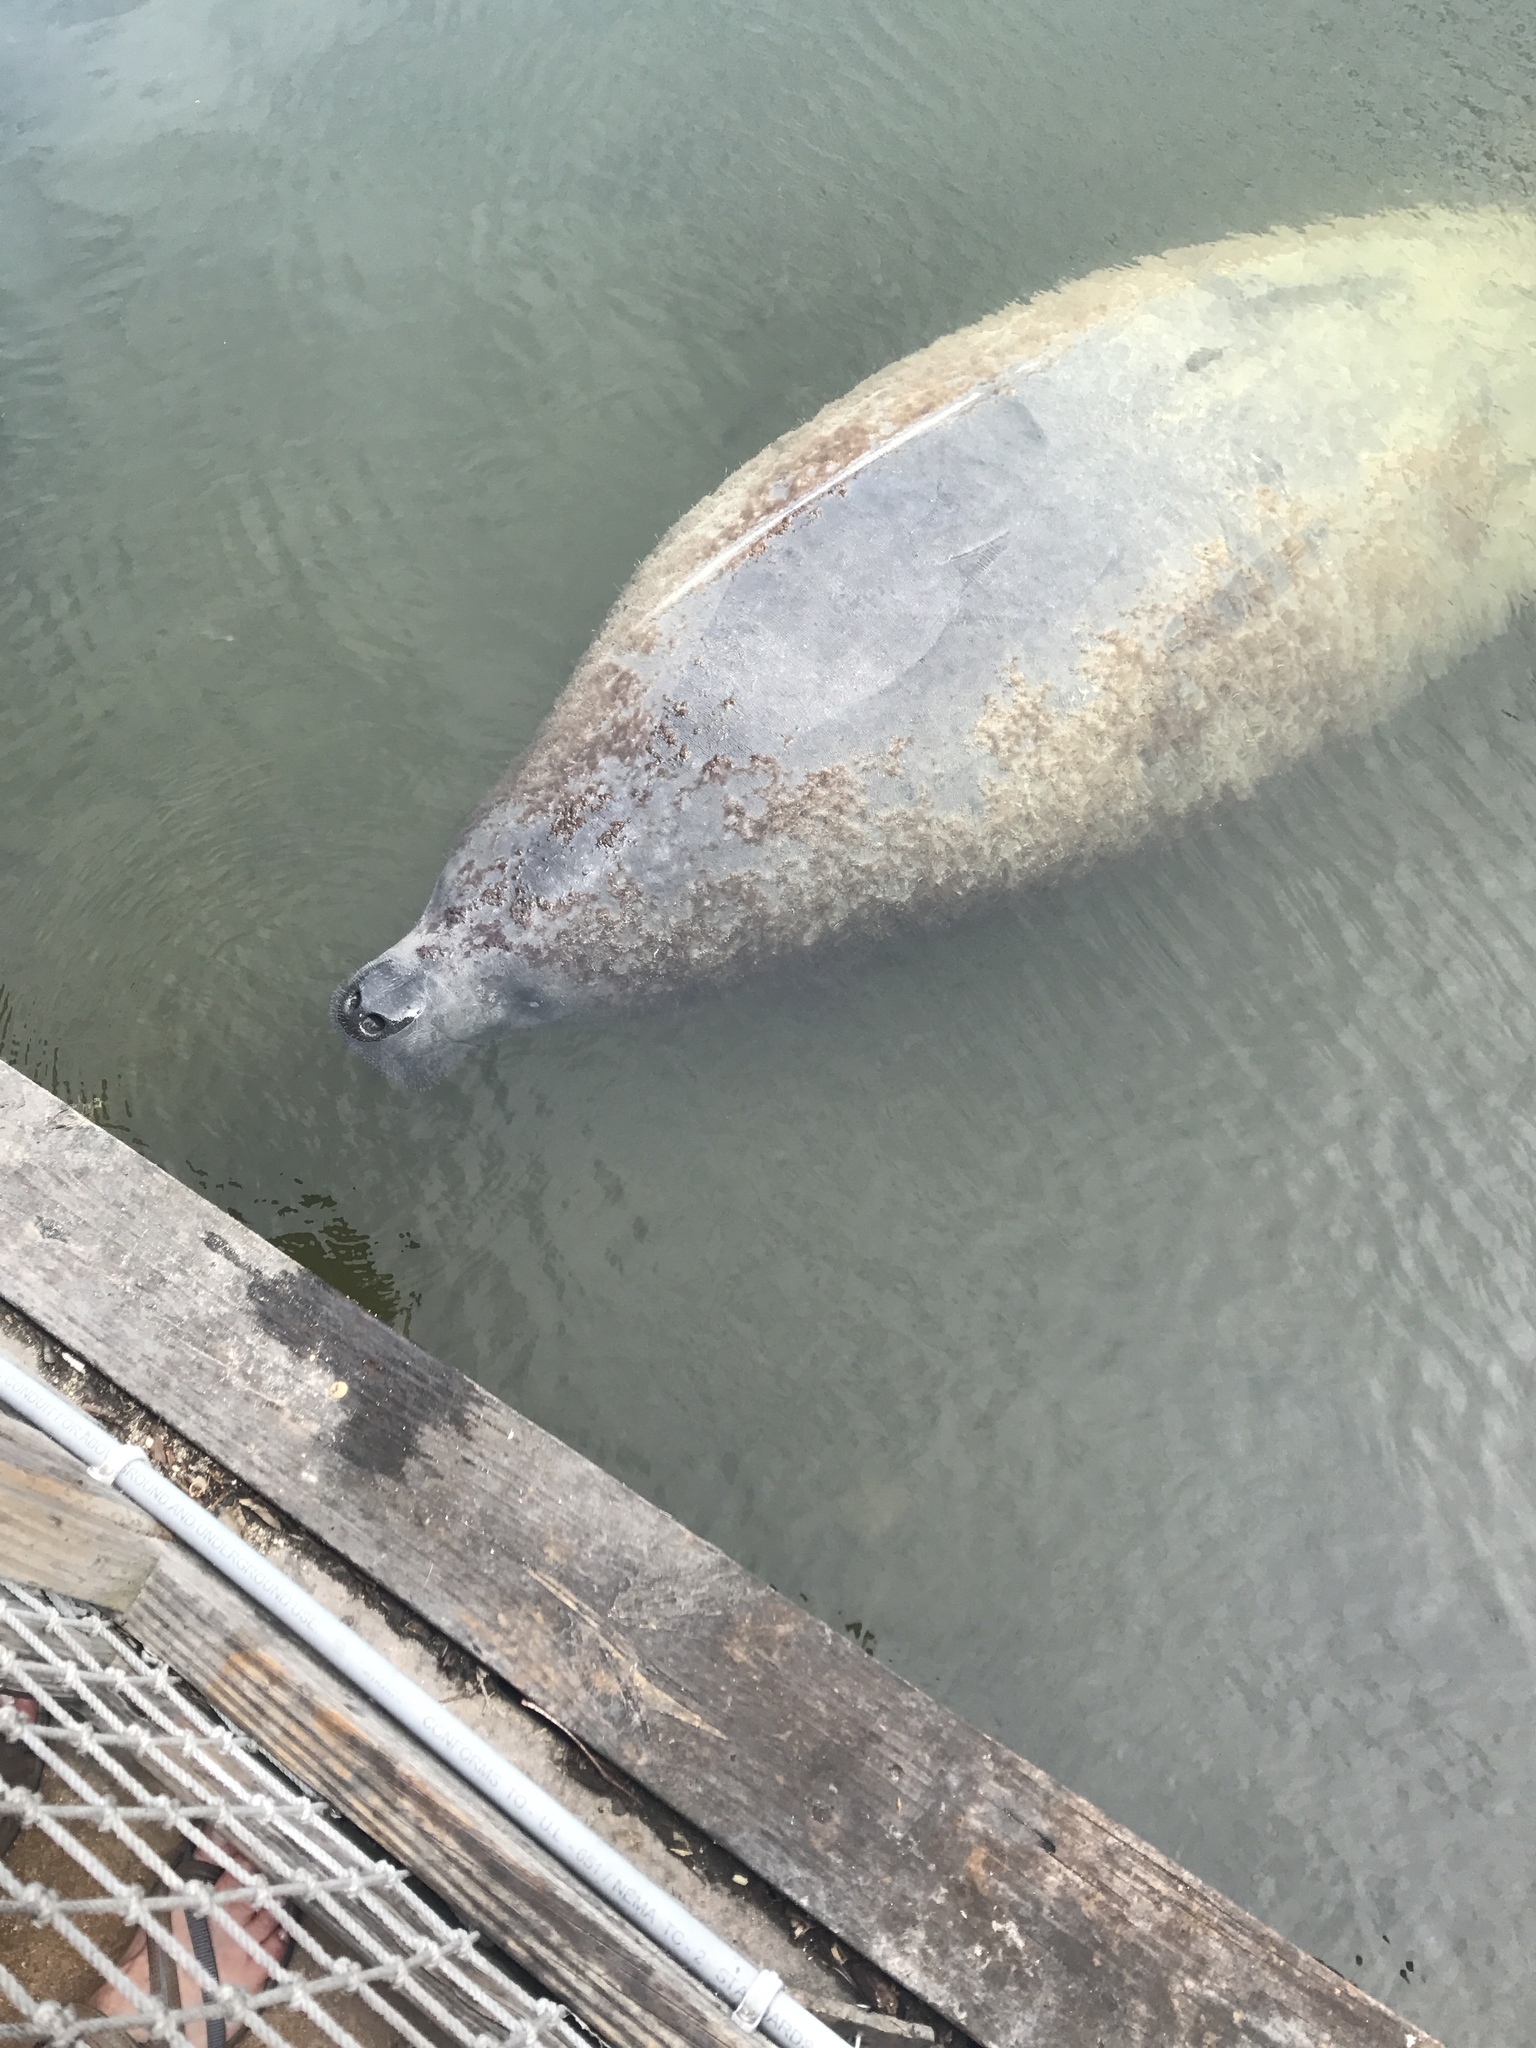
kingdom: Animalia
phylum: Chordata
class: Mammalia
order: Sirenia
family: Trichechidae
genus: Trichechus
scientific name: Trichechus manatus
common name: West indian manatee
